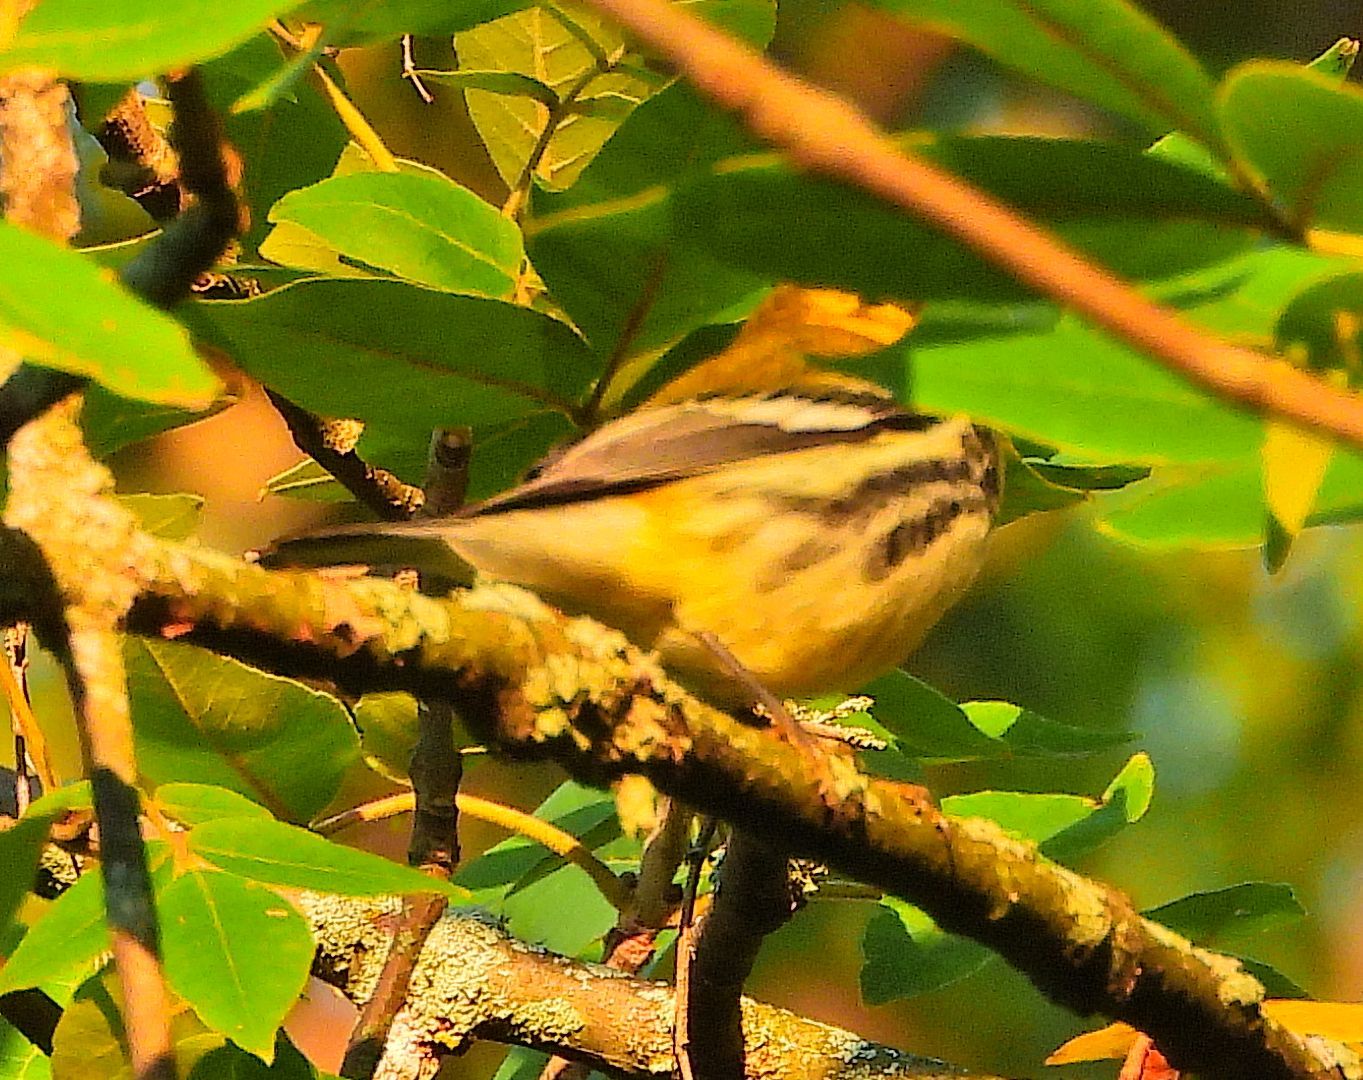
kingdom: Animalia
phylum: Chordata
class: Aves
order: Passeriformes
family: Parulidae
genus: Setophaga
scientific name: Setophaga virens
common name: Black-throated green warbler
